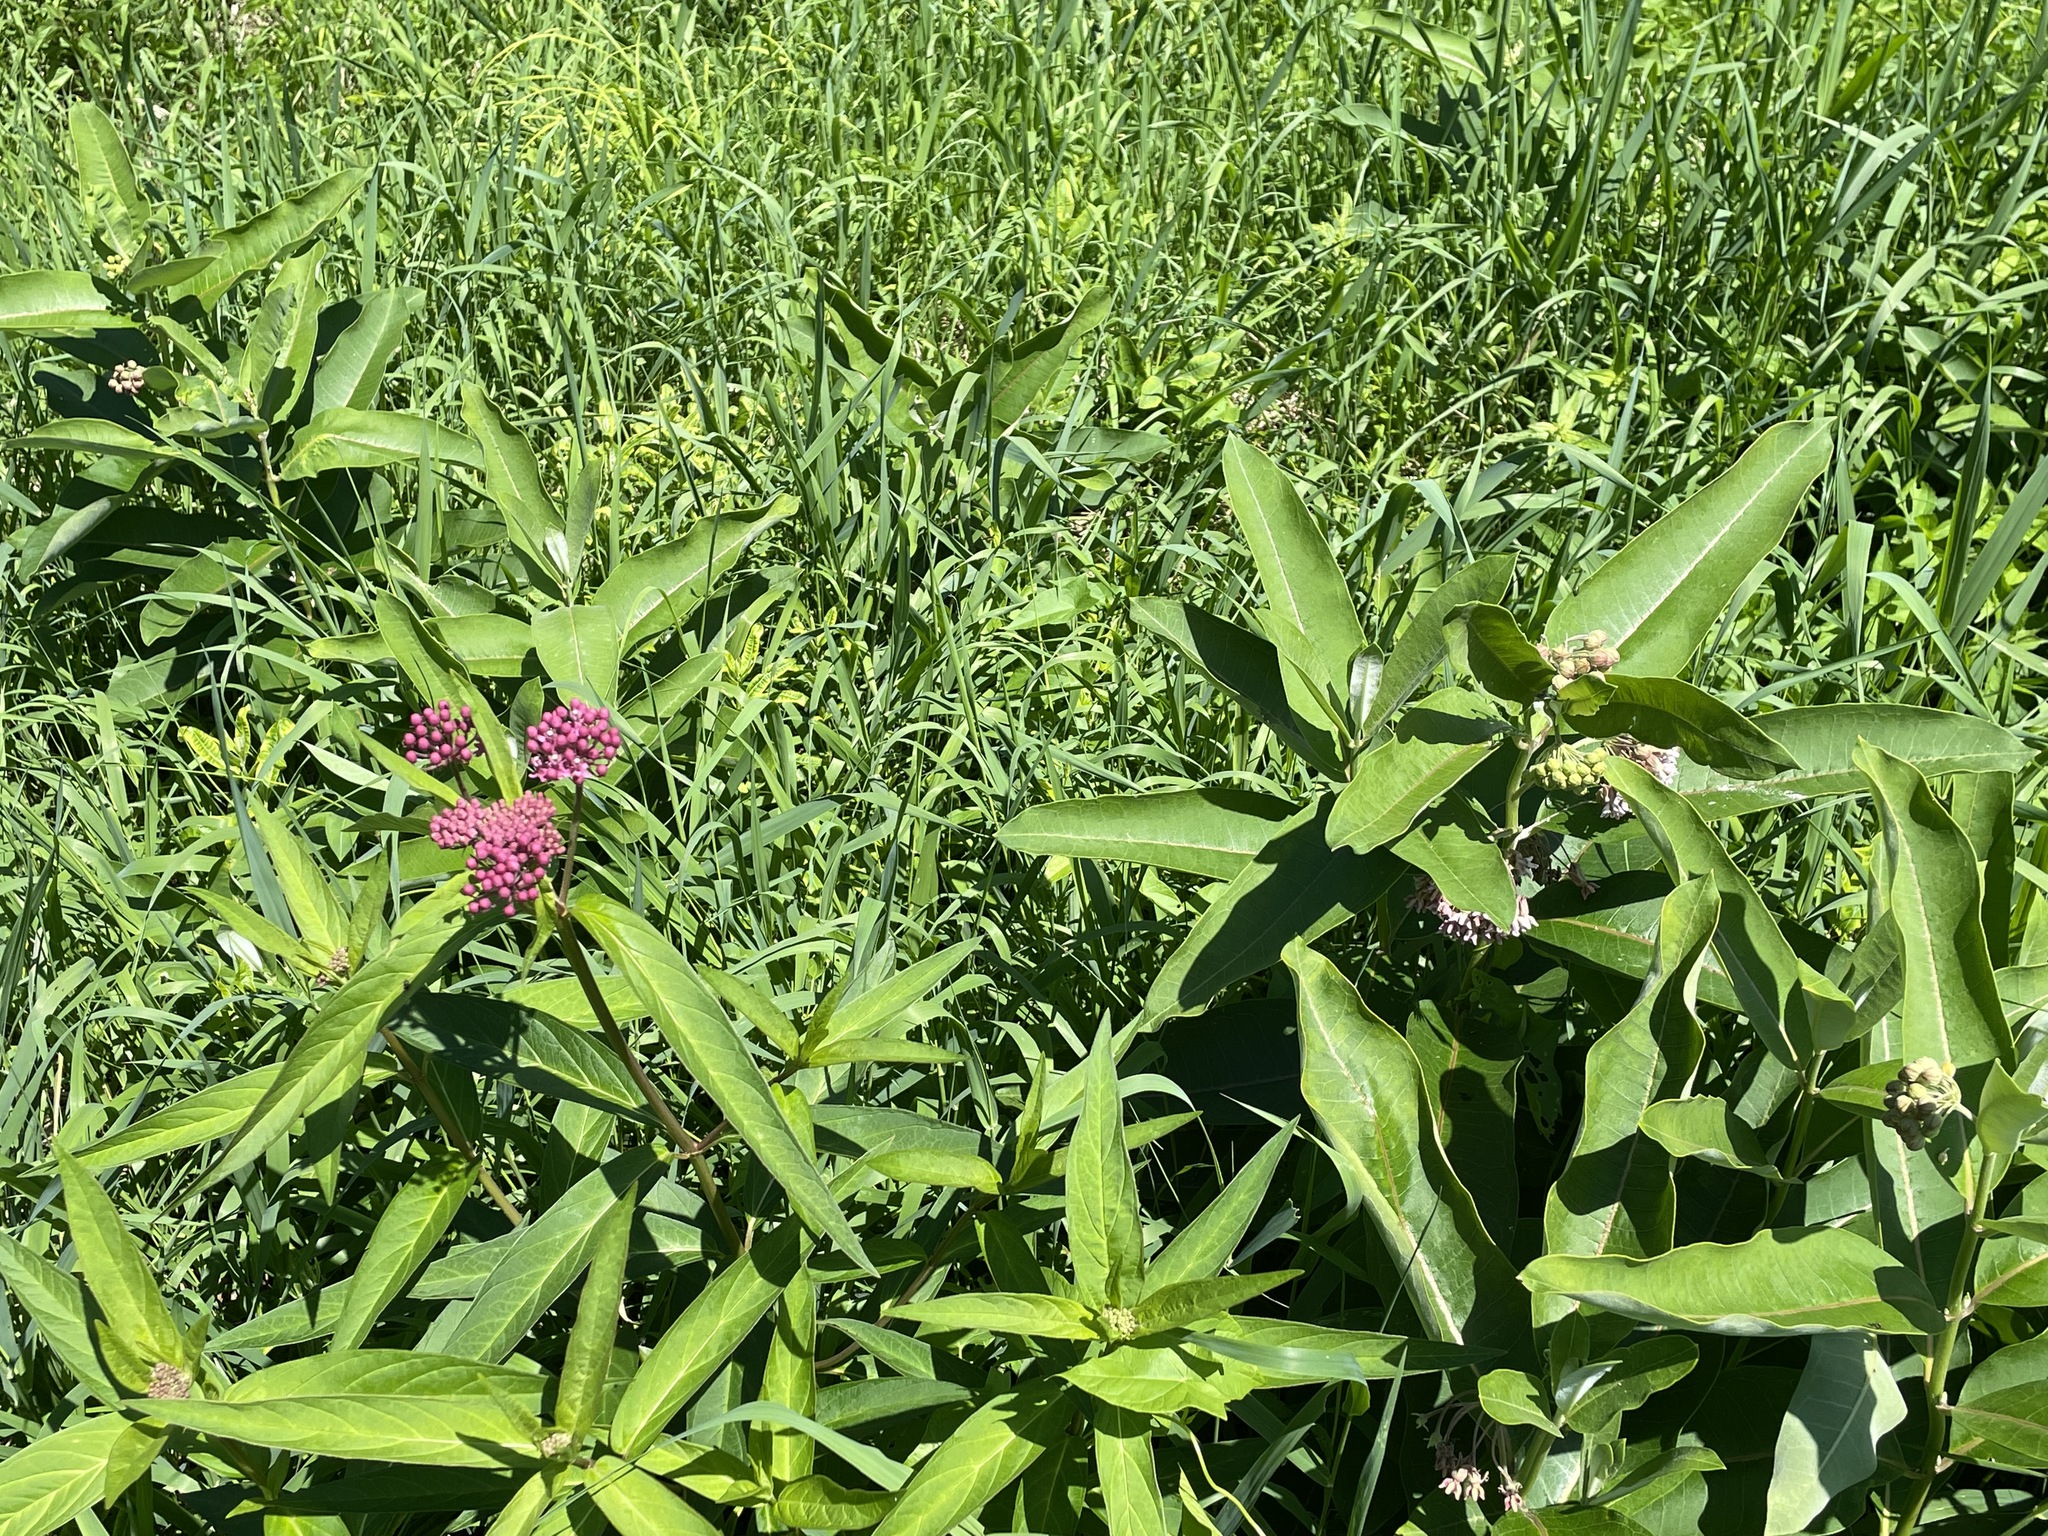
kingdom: Plantae
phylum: Tracheophyta
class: Magnoliopsida
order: Gentianales
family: Apocynaceae
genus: Asclepias
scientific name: Asclepias syriaca
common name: Common milkweed
